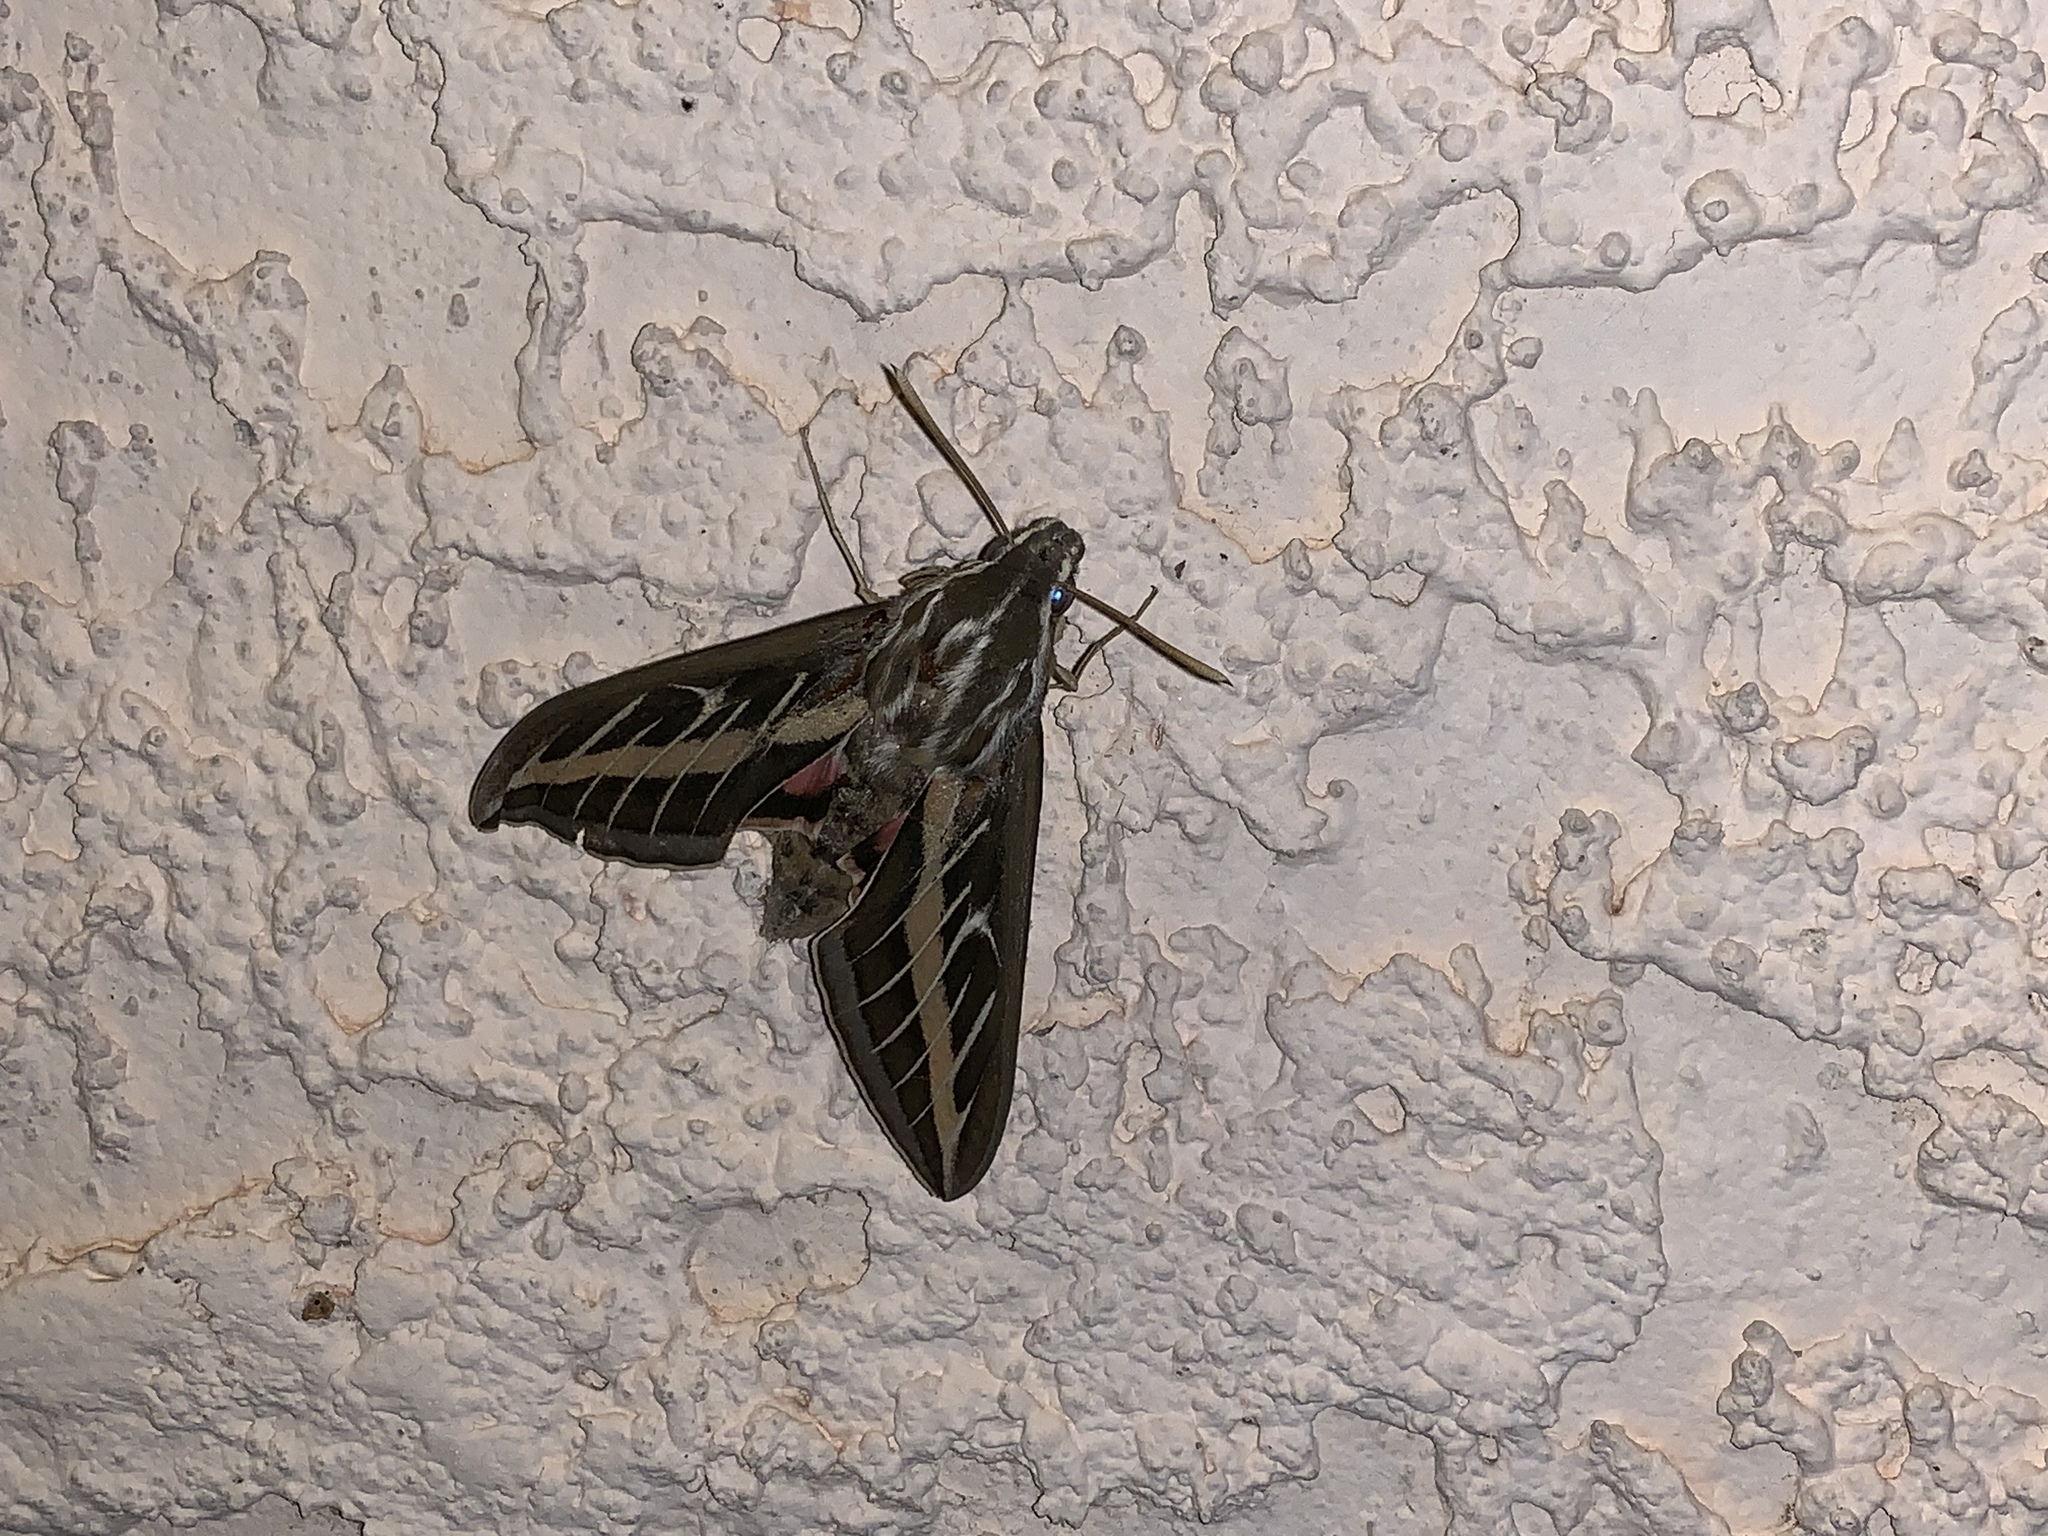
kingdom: Animalia
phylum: Arthropoda
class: Insecta
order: Lepidoptera
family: Sphingidae
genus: Hyles
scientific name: Hyles lineata
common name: White-lined sphinx
